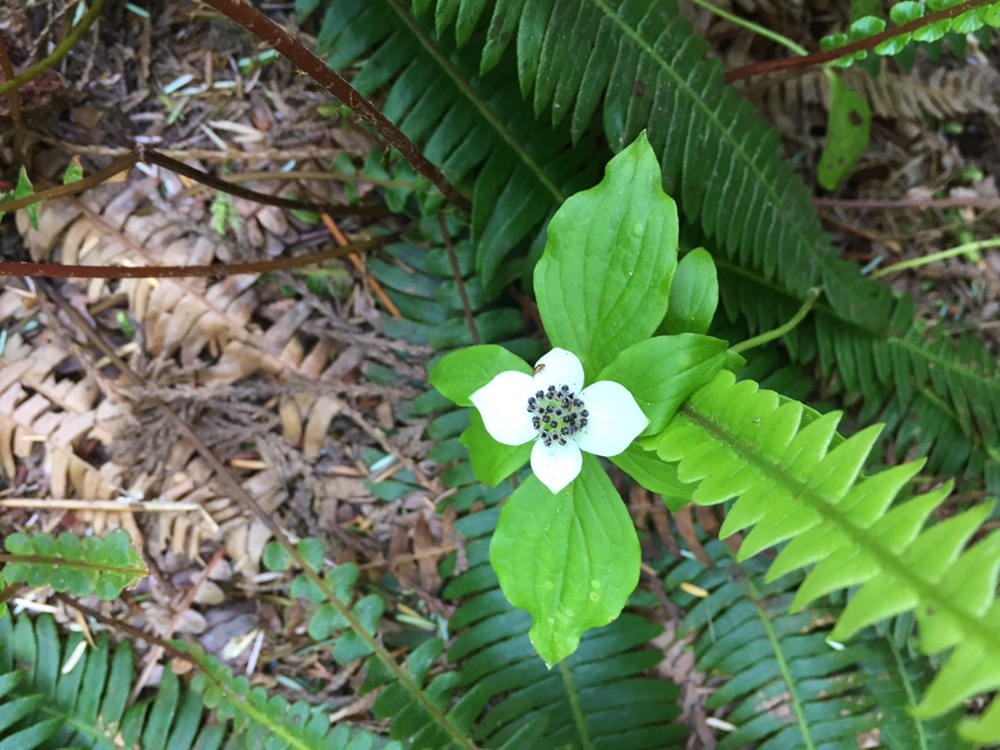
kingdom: Plantae
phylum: Tracheophyta
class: Magnoliopsida
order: Cornales
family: Cornaceae
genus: Cornus
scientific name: Cornus unalaschkensis
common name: Alaska bunchberry
